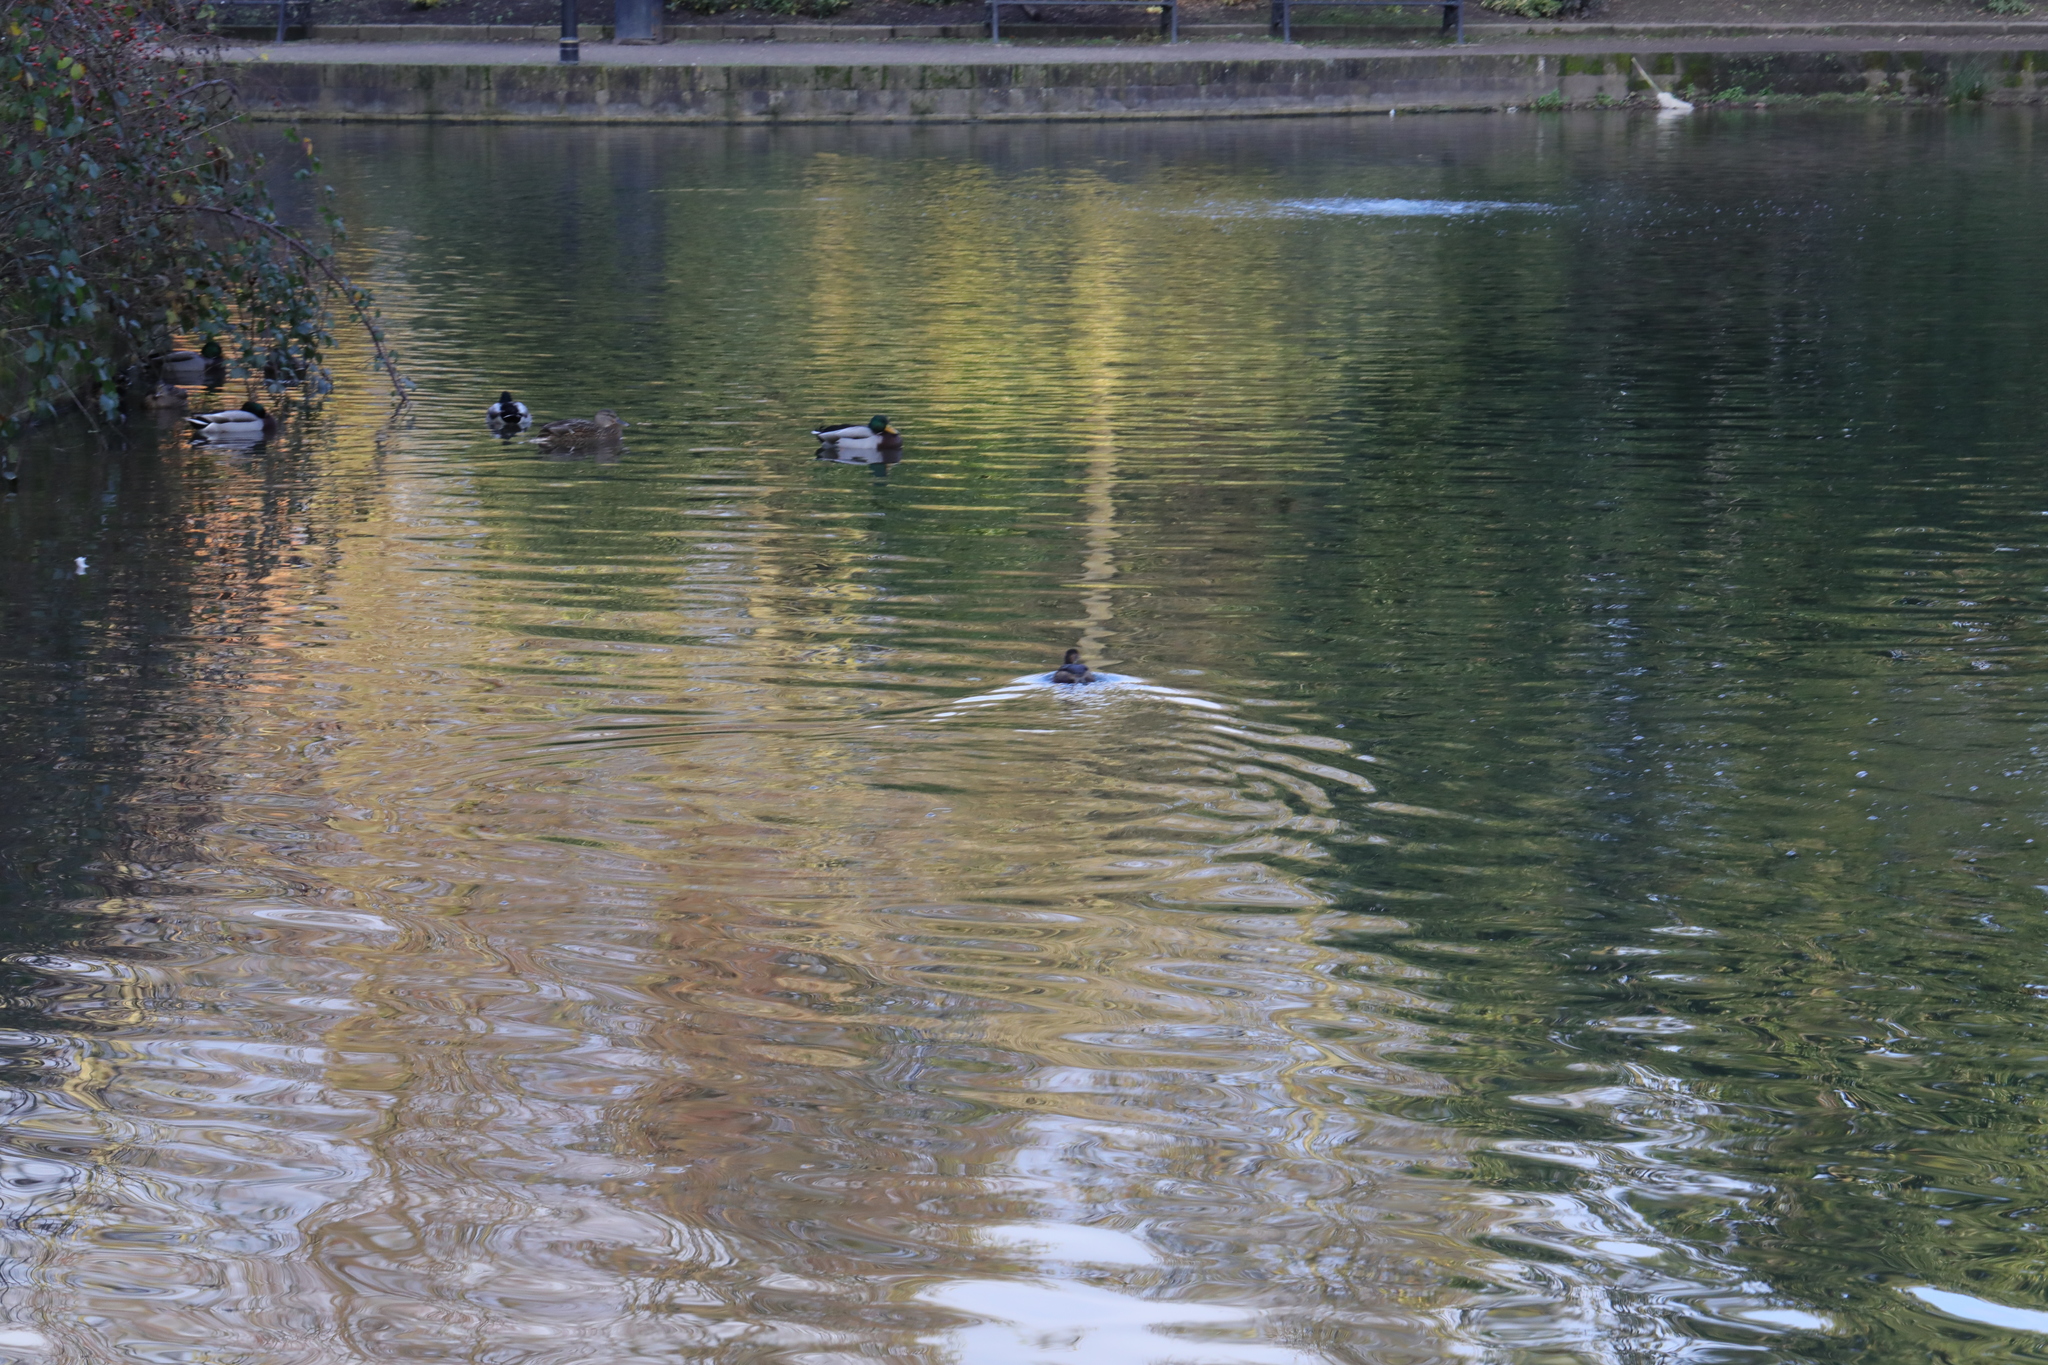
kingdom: Animalia
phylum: Chordata
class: Aves
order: Podicipediformes
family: Podicipedidae
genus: Tachybaptus
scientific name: Tachybaptus ruficollis
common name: Little grebe
